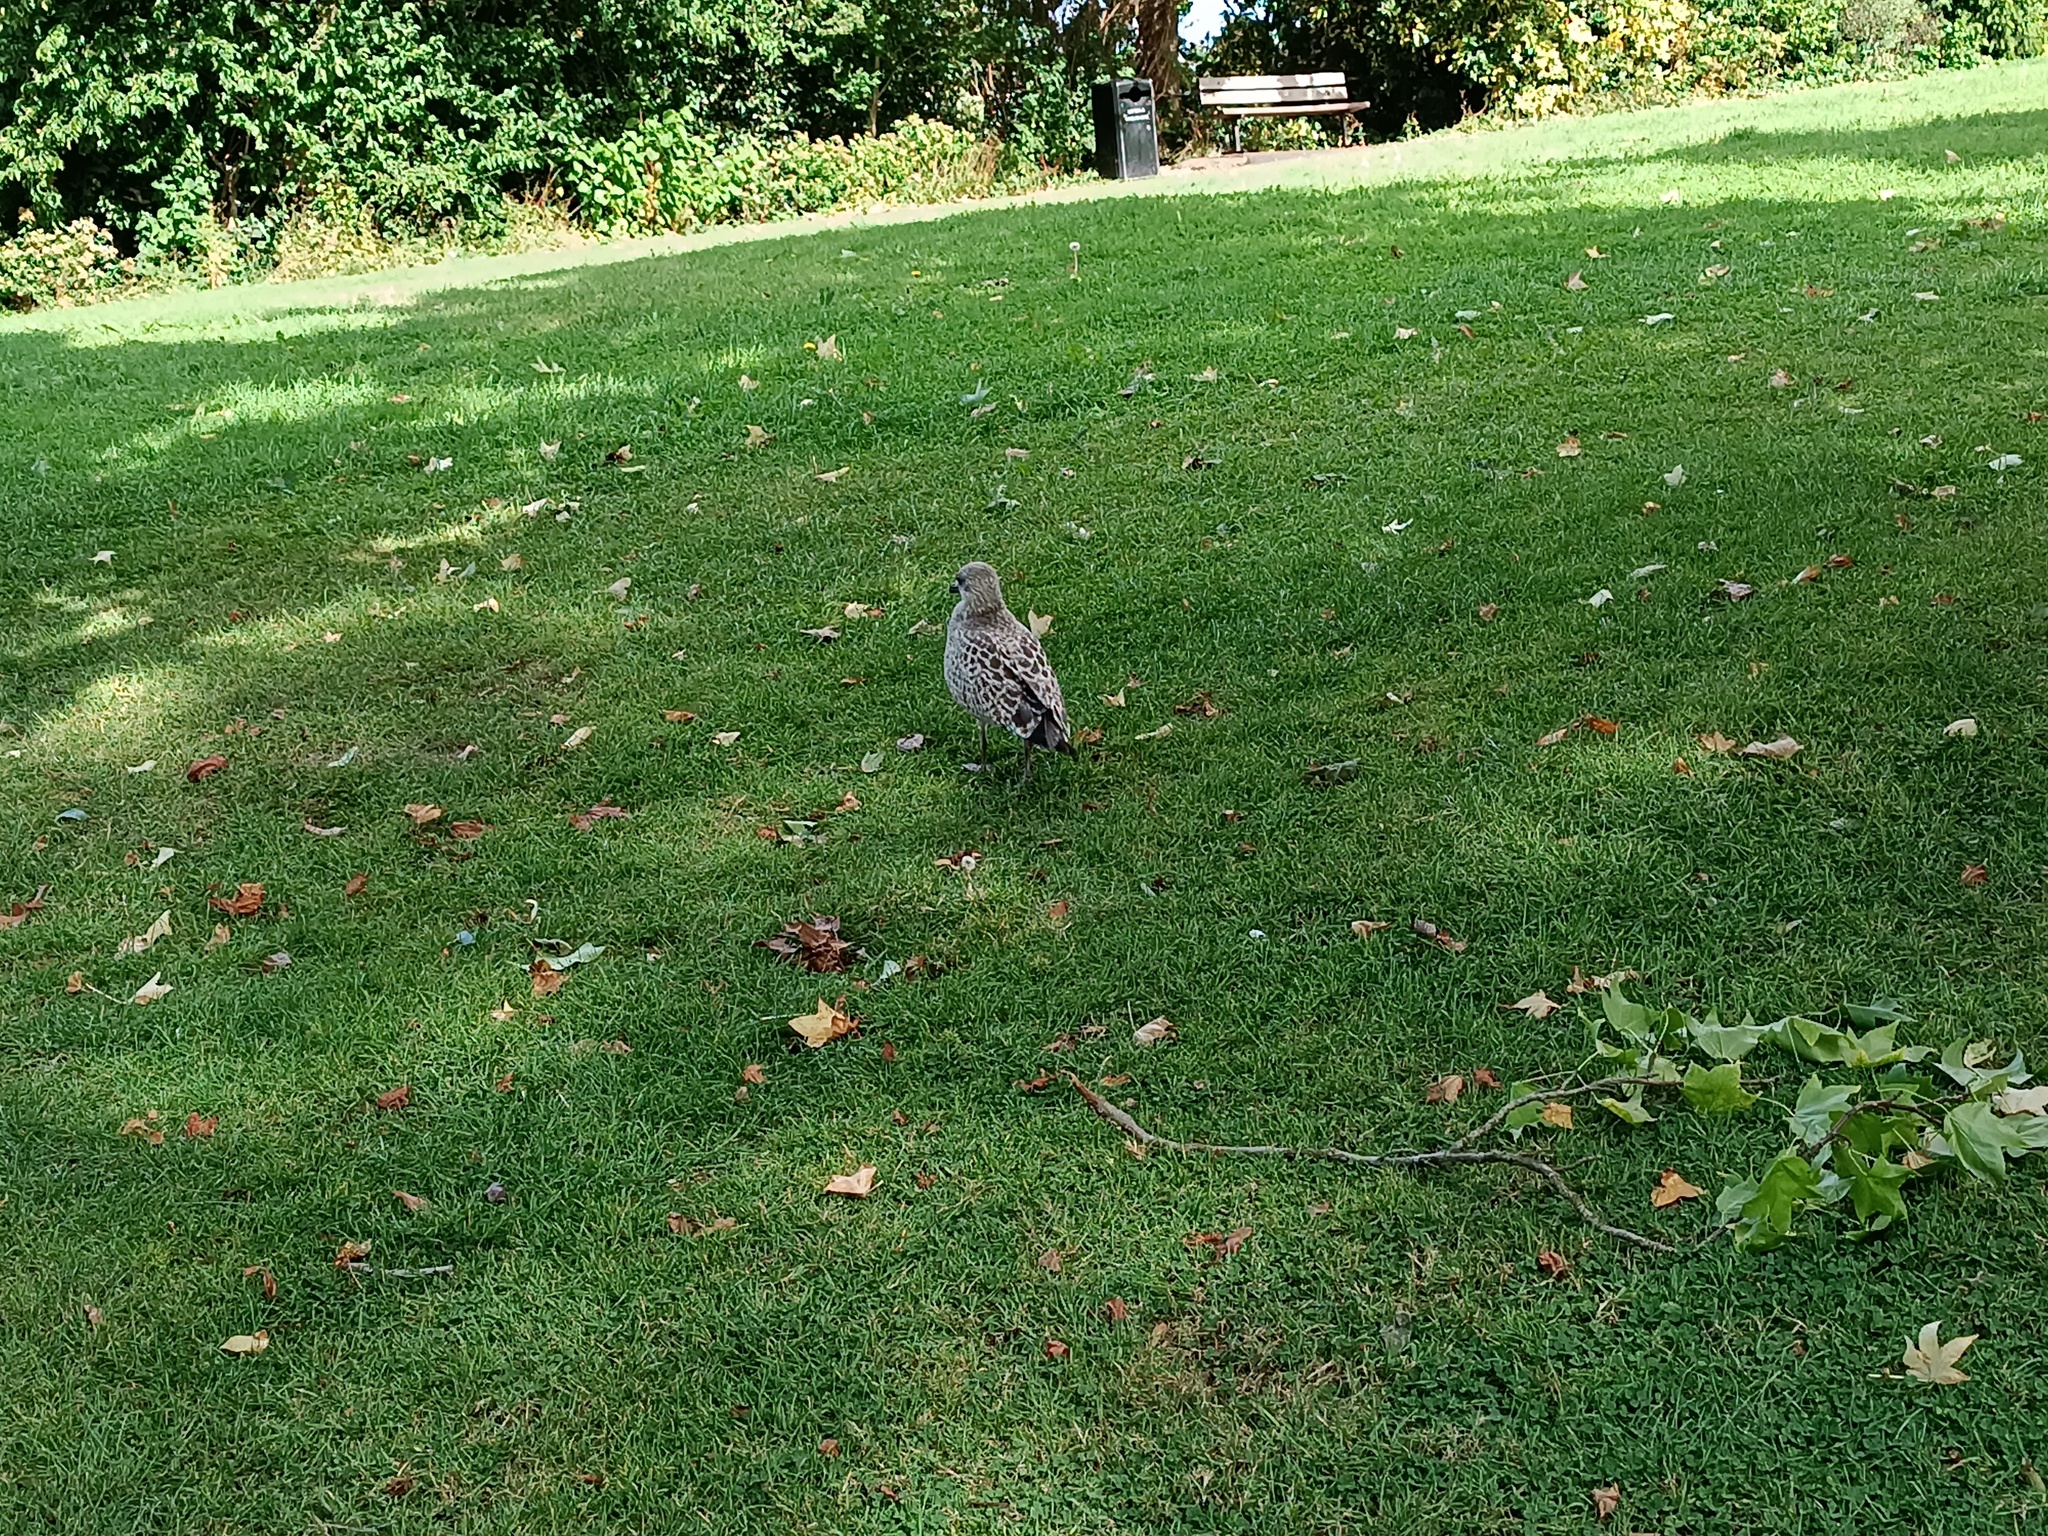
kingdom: Animalia
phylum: Chordata
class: Aves
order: Charadriiformes
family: Laridae
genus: Larus
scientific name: Larus argentatus
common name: Herring gull
